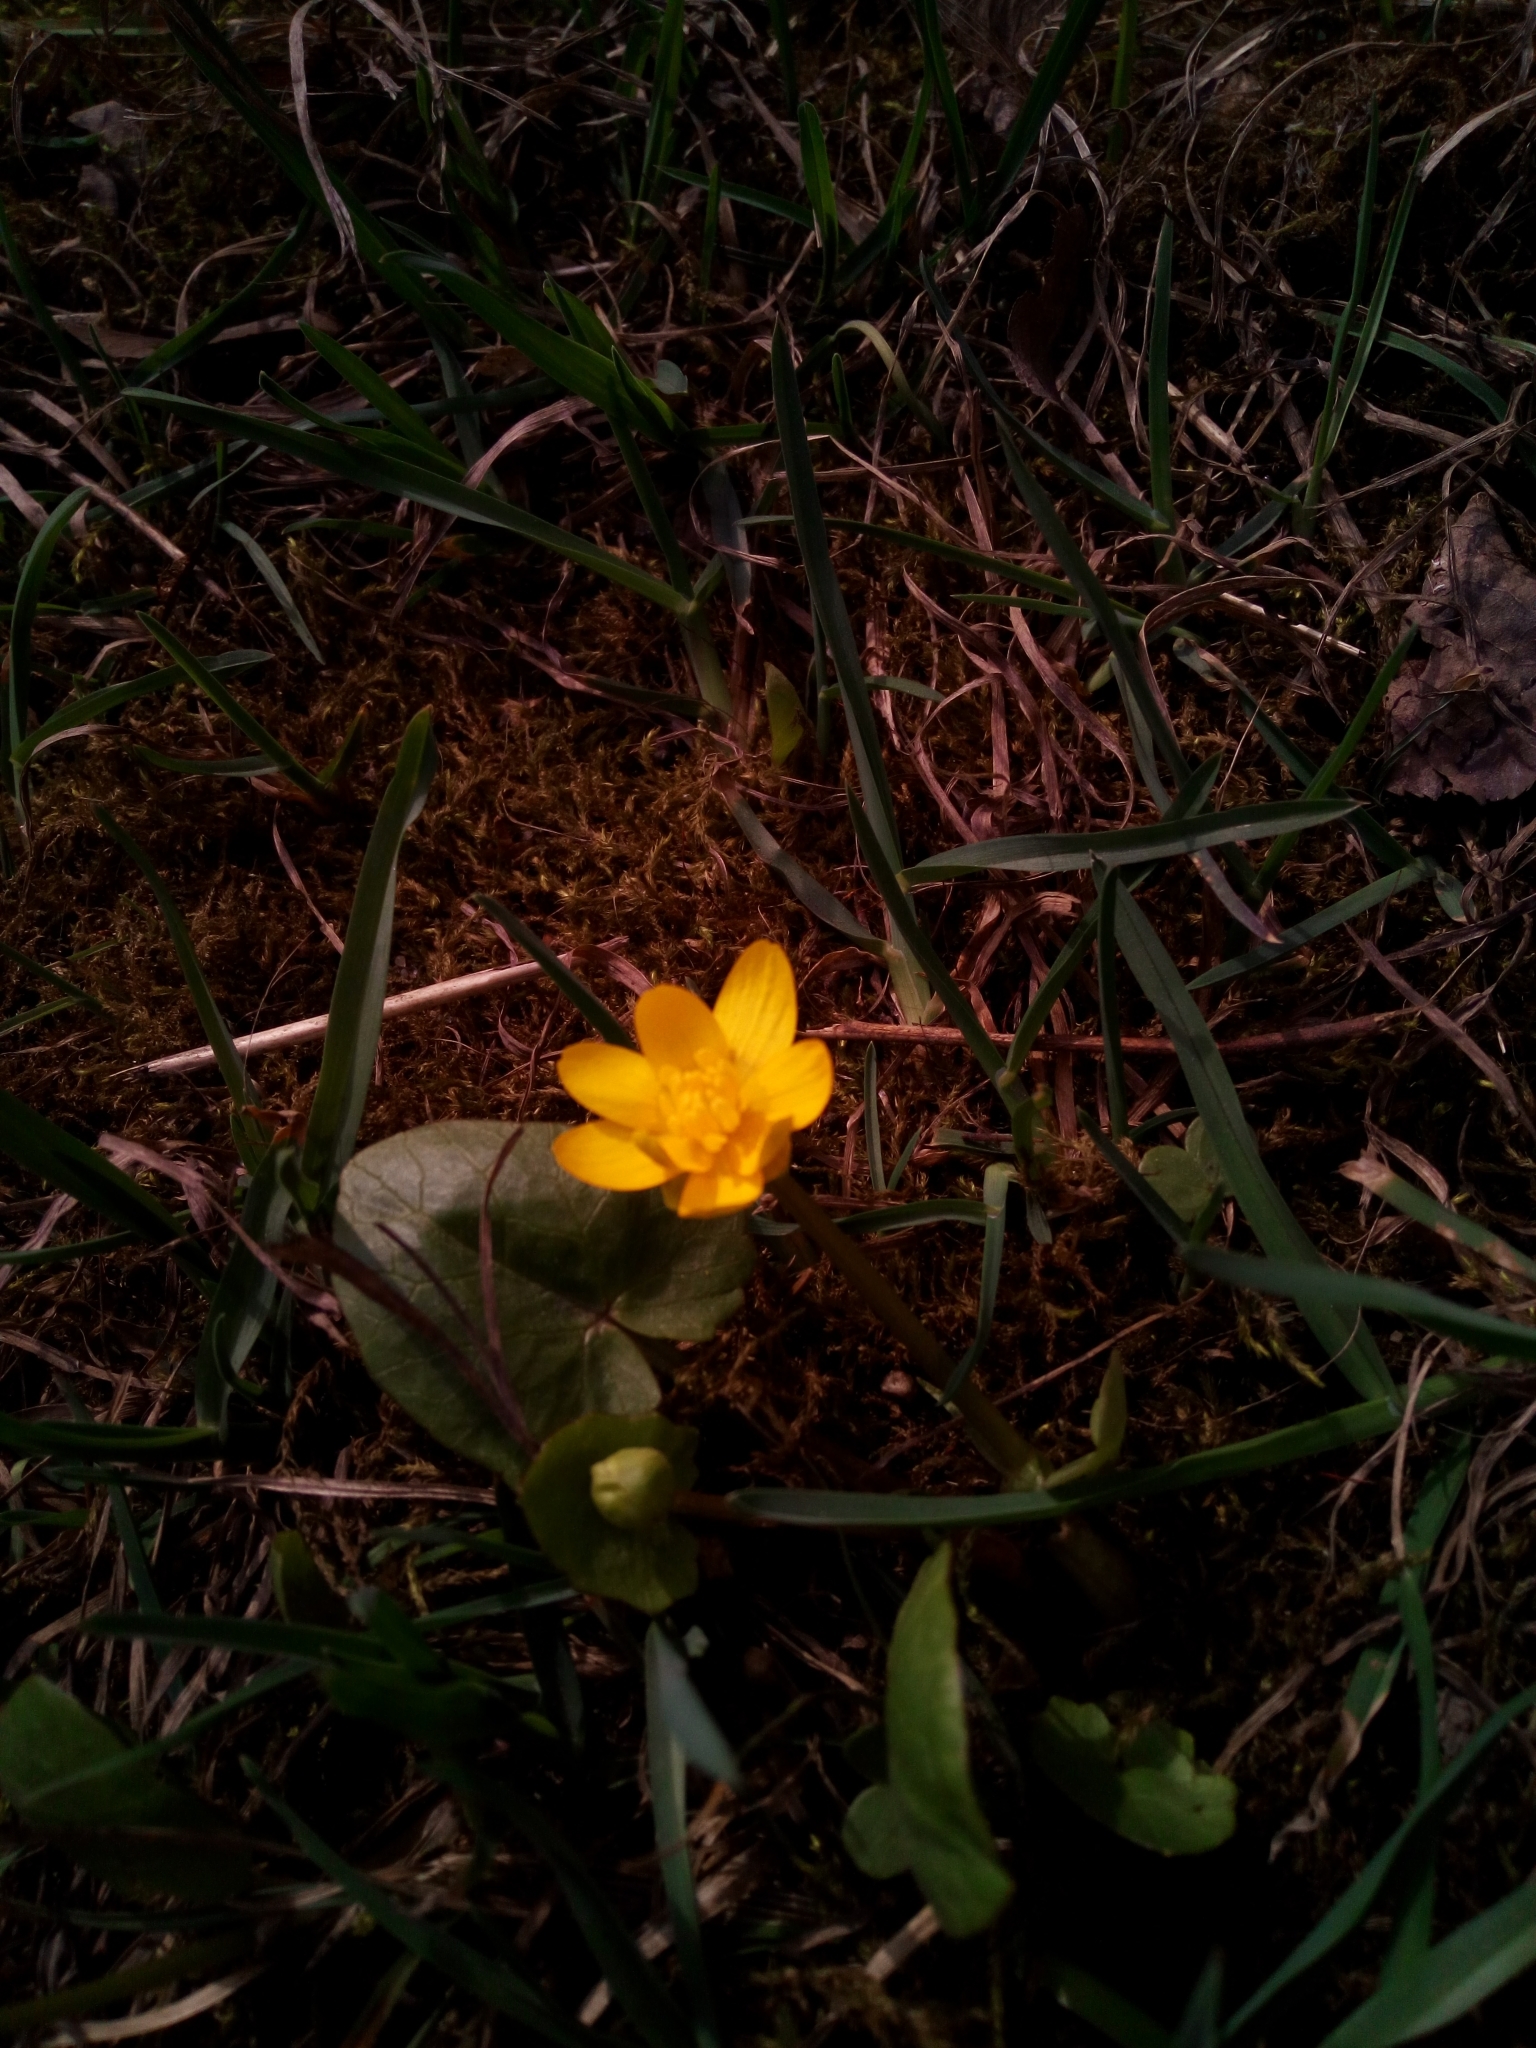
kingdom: Plantae
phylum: Tracheophyta
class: Magnoliopsida
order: Ranunculales
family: Ranunculaceae
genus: Ficaria
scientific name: Ficaria verna
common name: Lesser celandine
